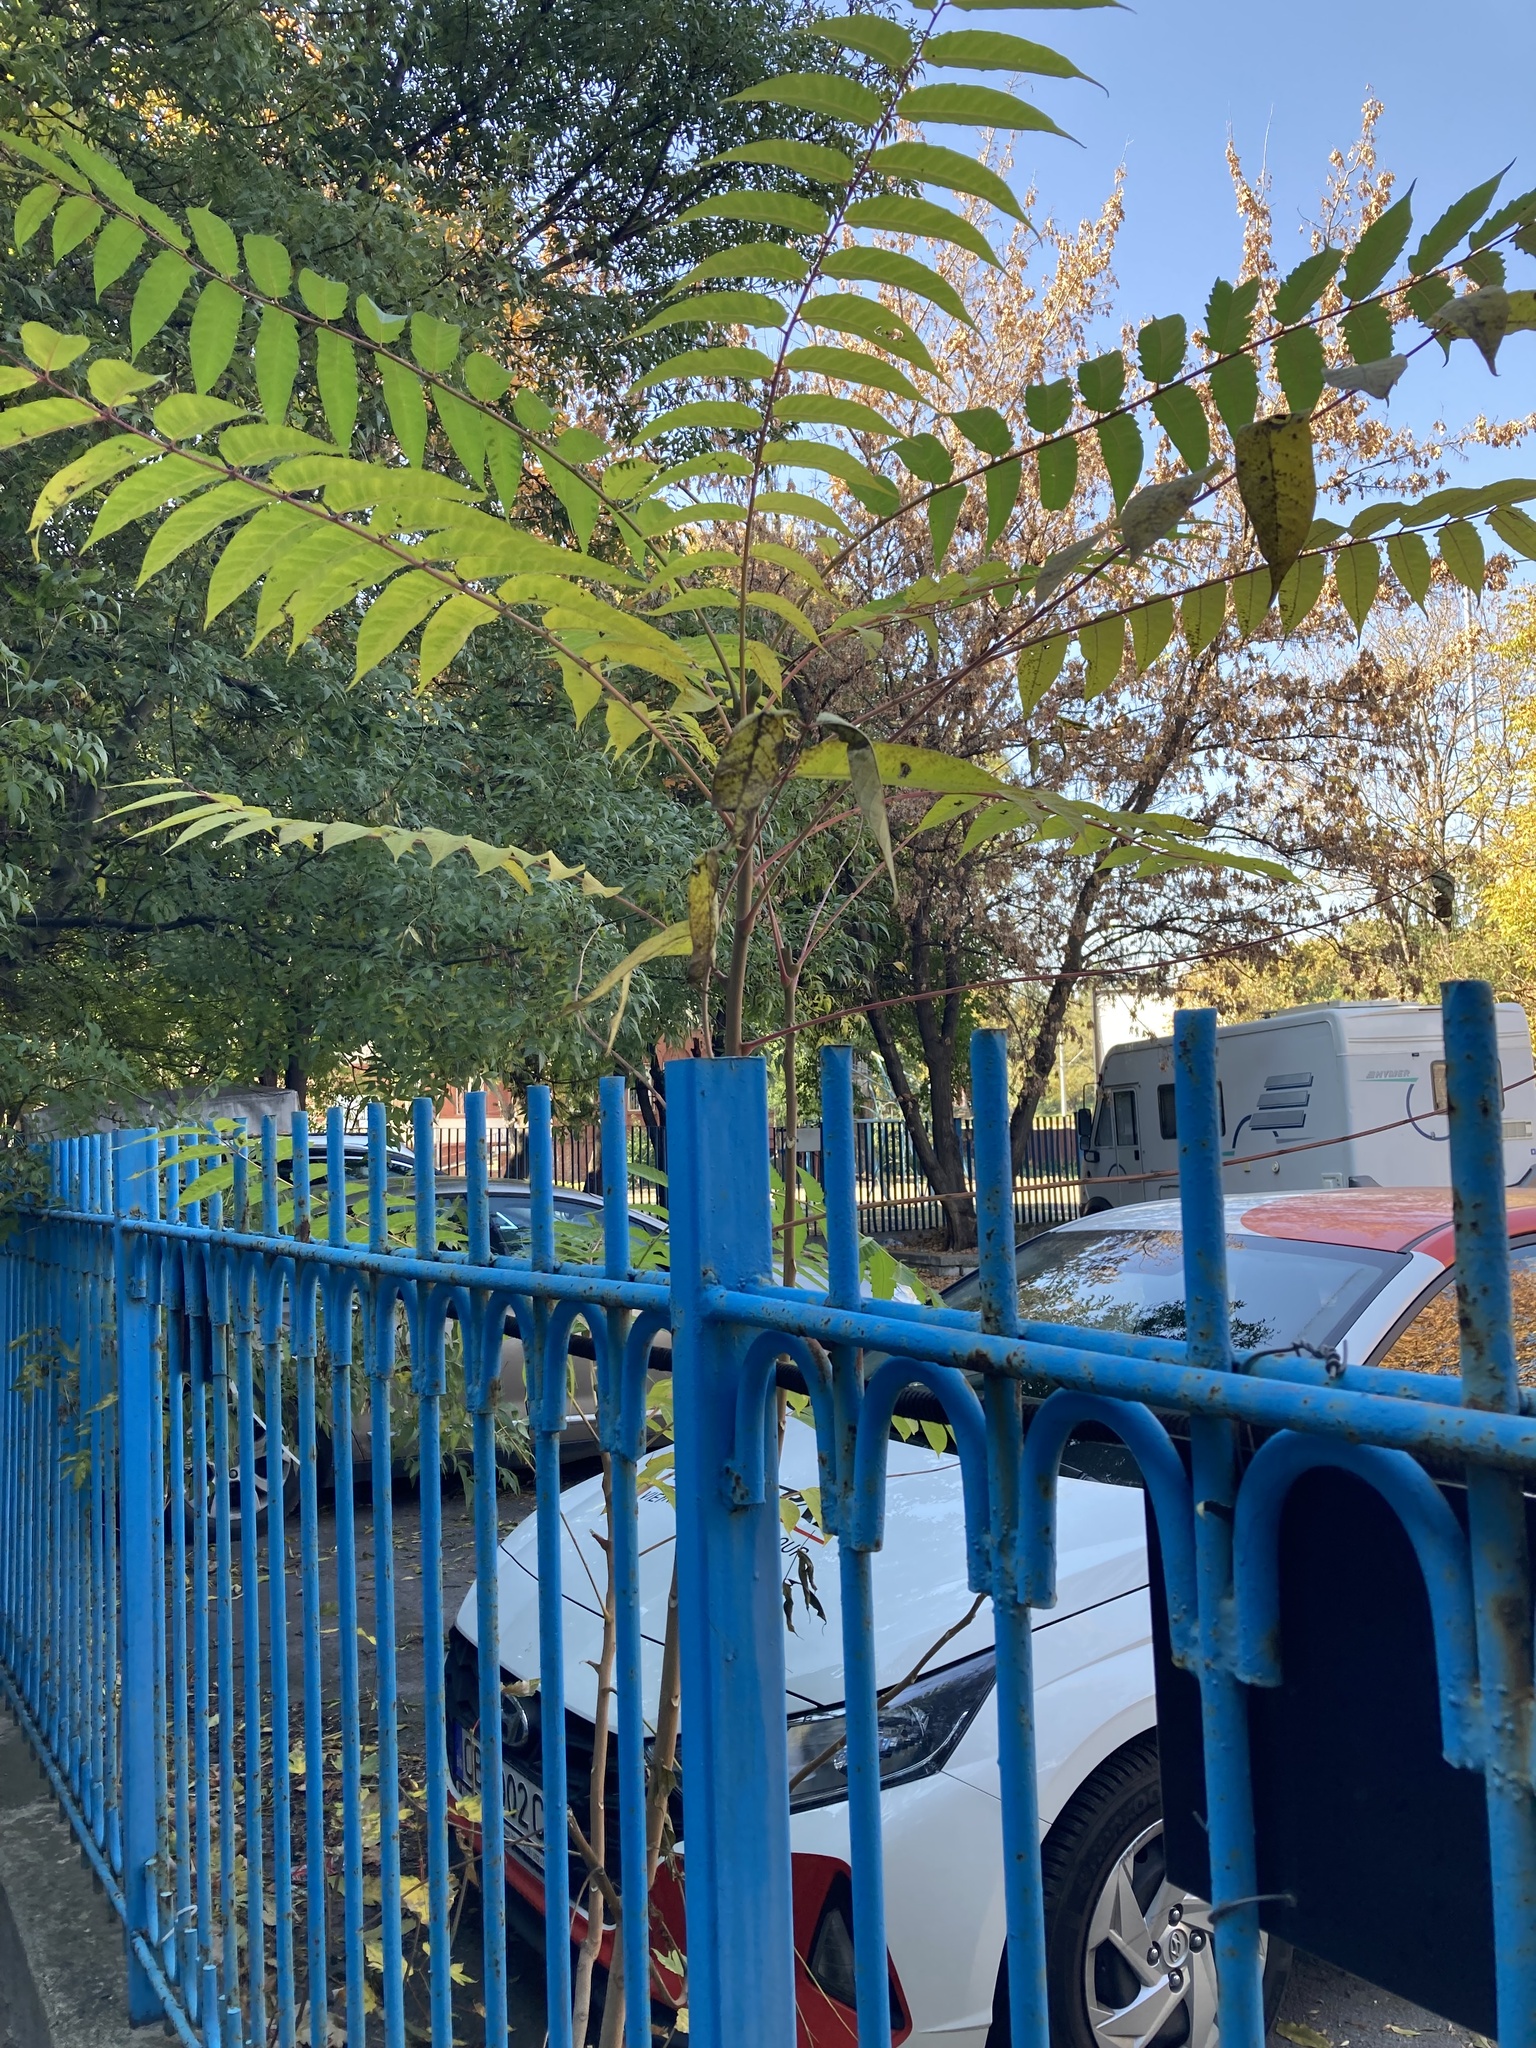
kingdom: Plantae
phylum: Tracheophyta
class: Magnoliopsida
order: Sapindales
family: Simaroubaceae
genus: Ailanthus
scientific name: Ailanthus altissima
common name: Tree-of-heaven
